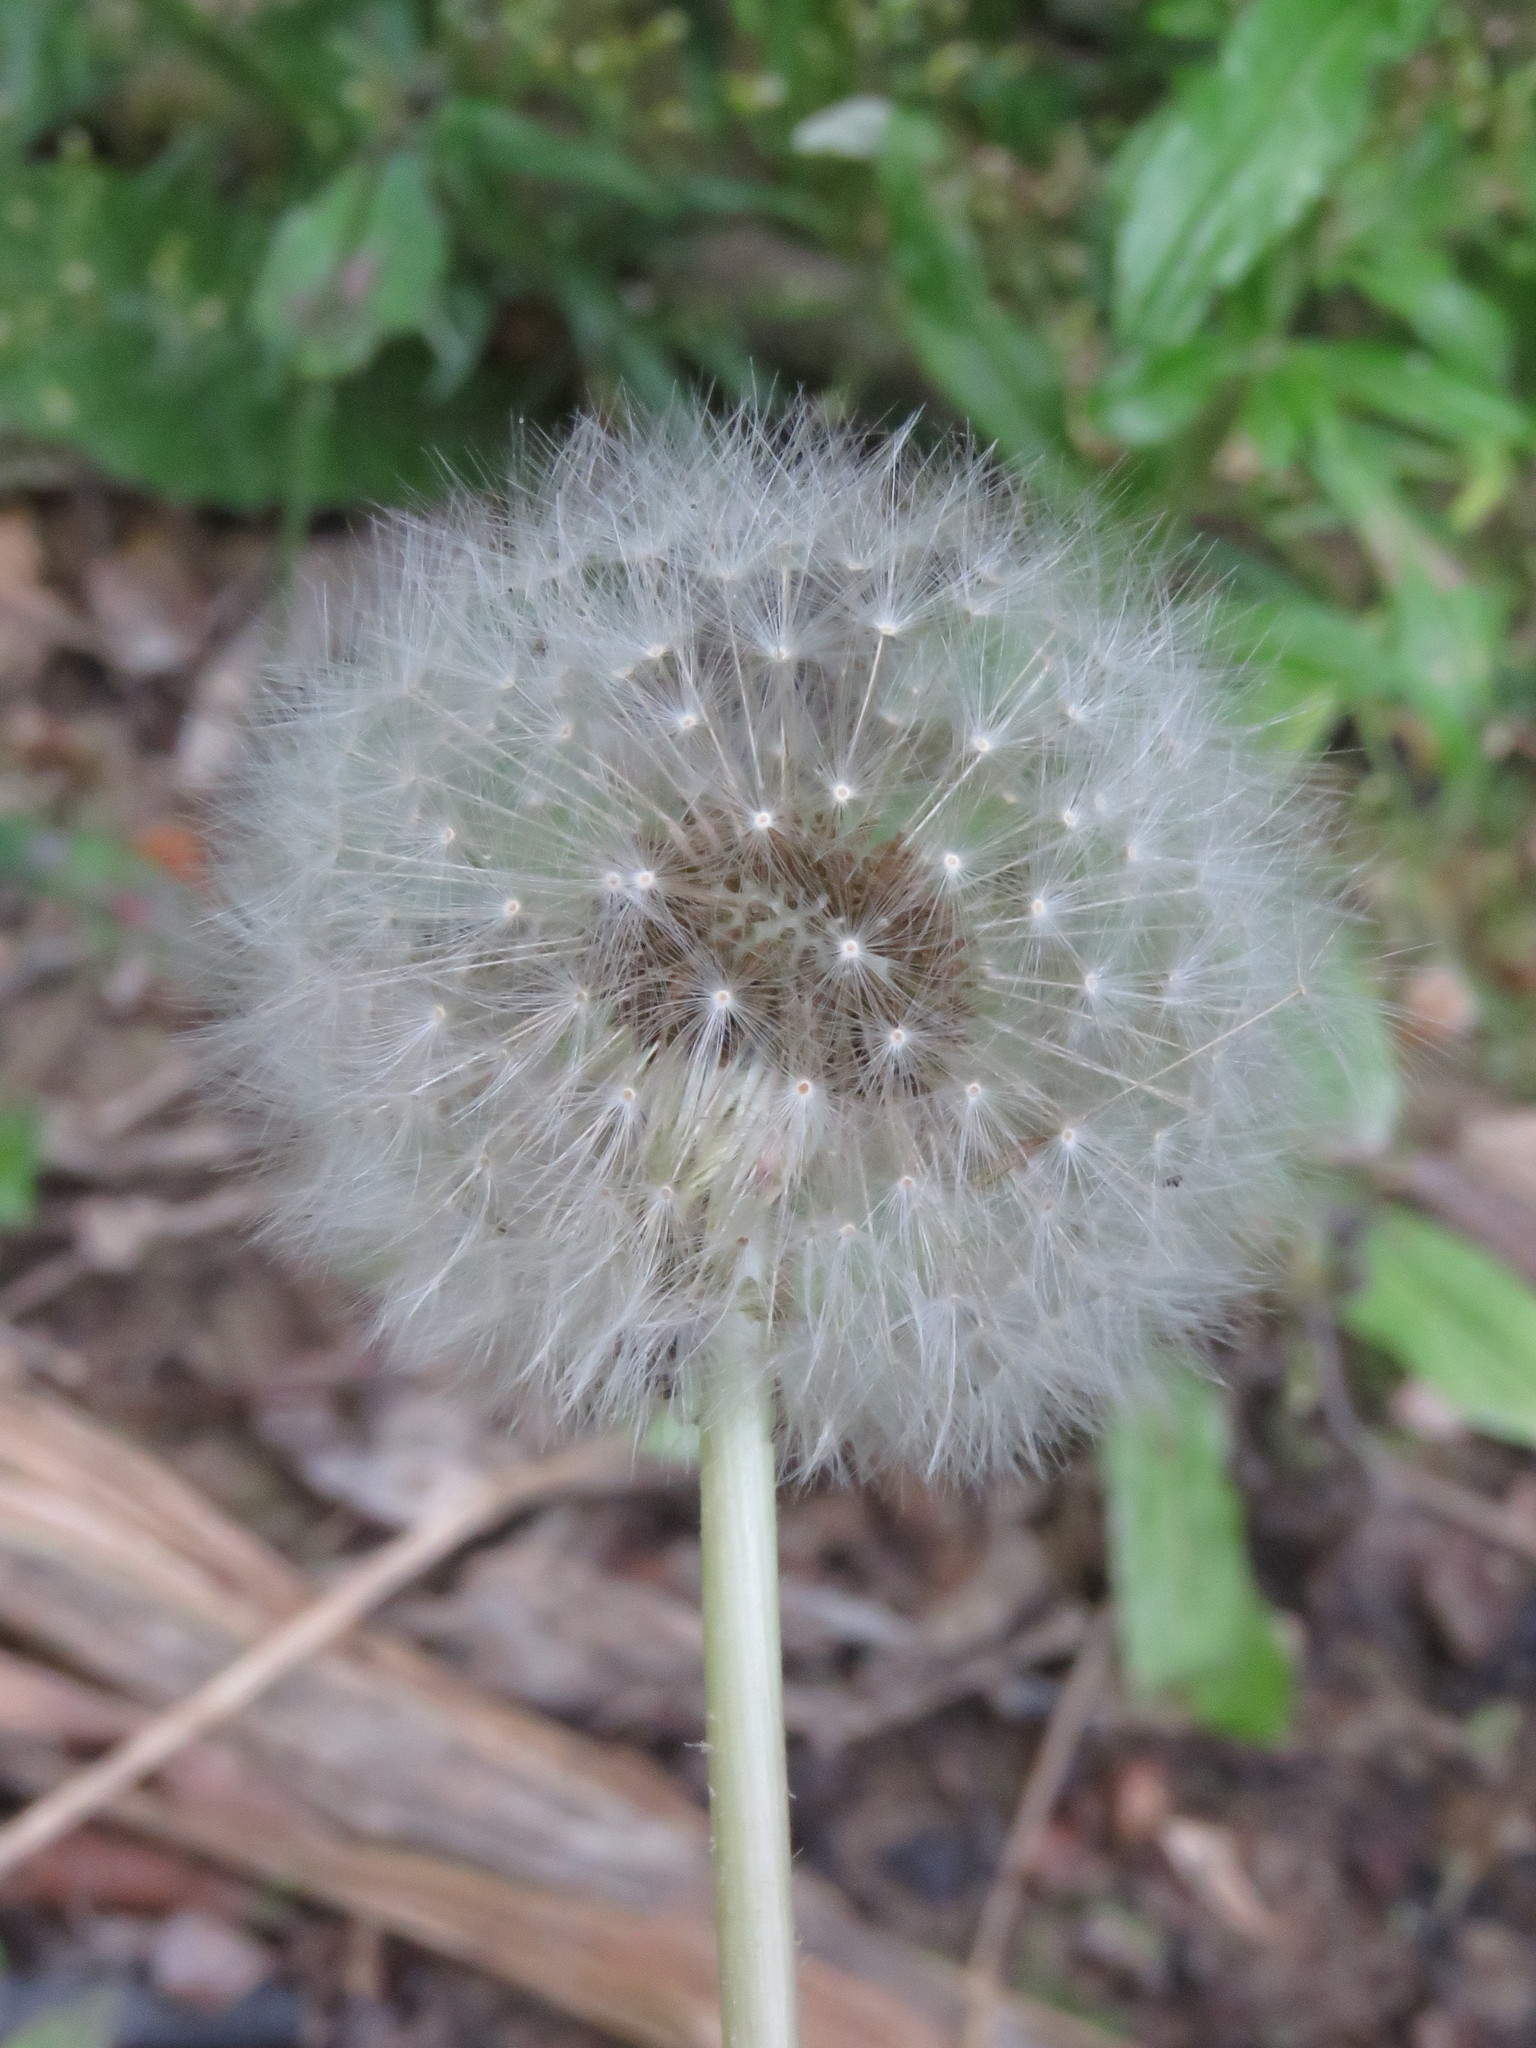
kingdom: Plantae
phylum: Tracheophyta
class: Magnoliopsida
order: Asterales
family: Asteraceae
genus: Taraxacum
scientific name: Taraxacum officinale
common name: Common dandelion
